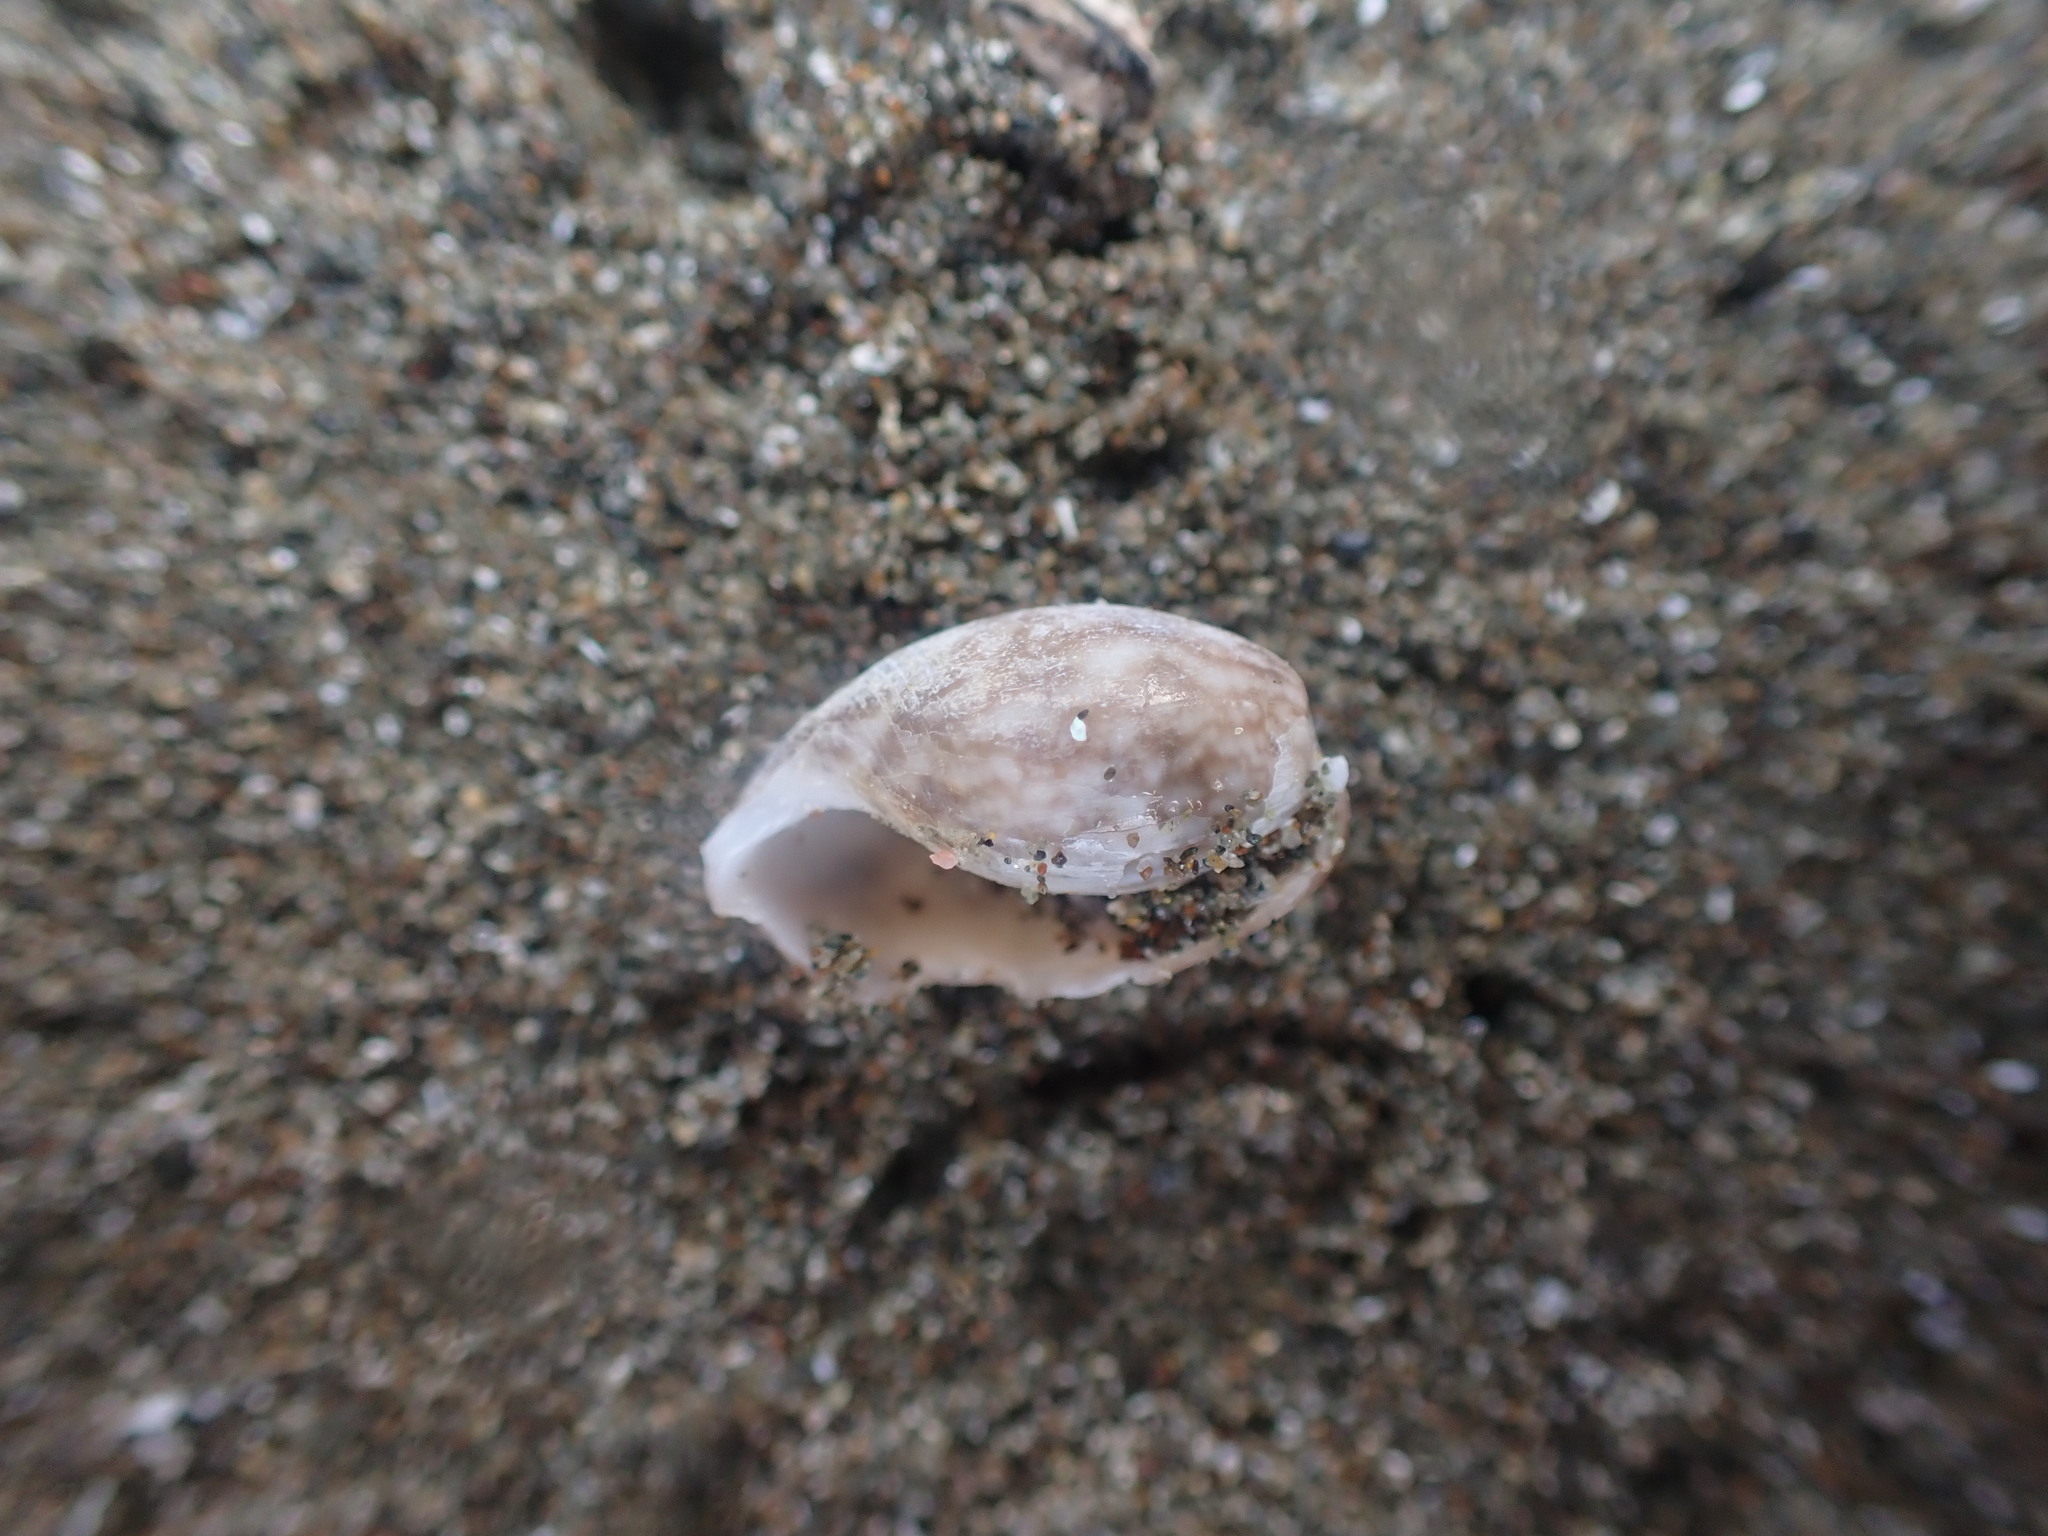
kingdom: Animalia
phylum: Mollusca
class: Gastropoda
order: Cephalaspidea
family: Bullidae
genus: Bulla
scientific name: Bulla quoyii
